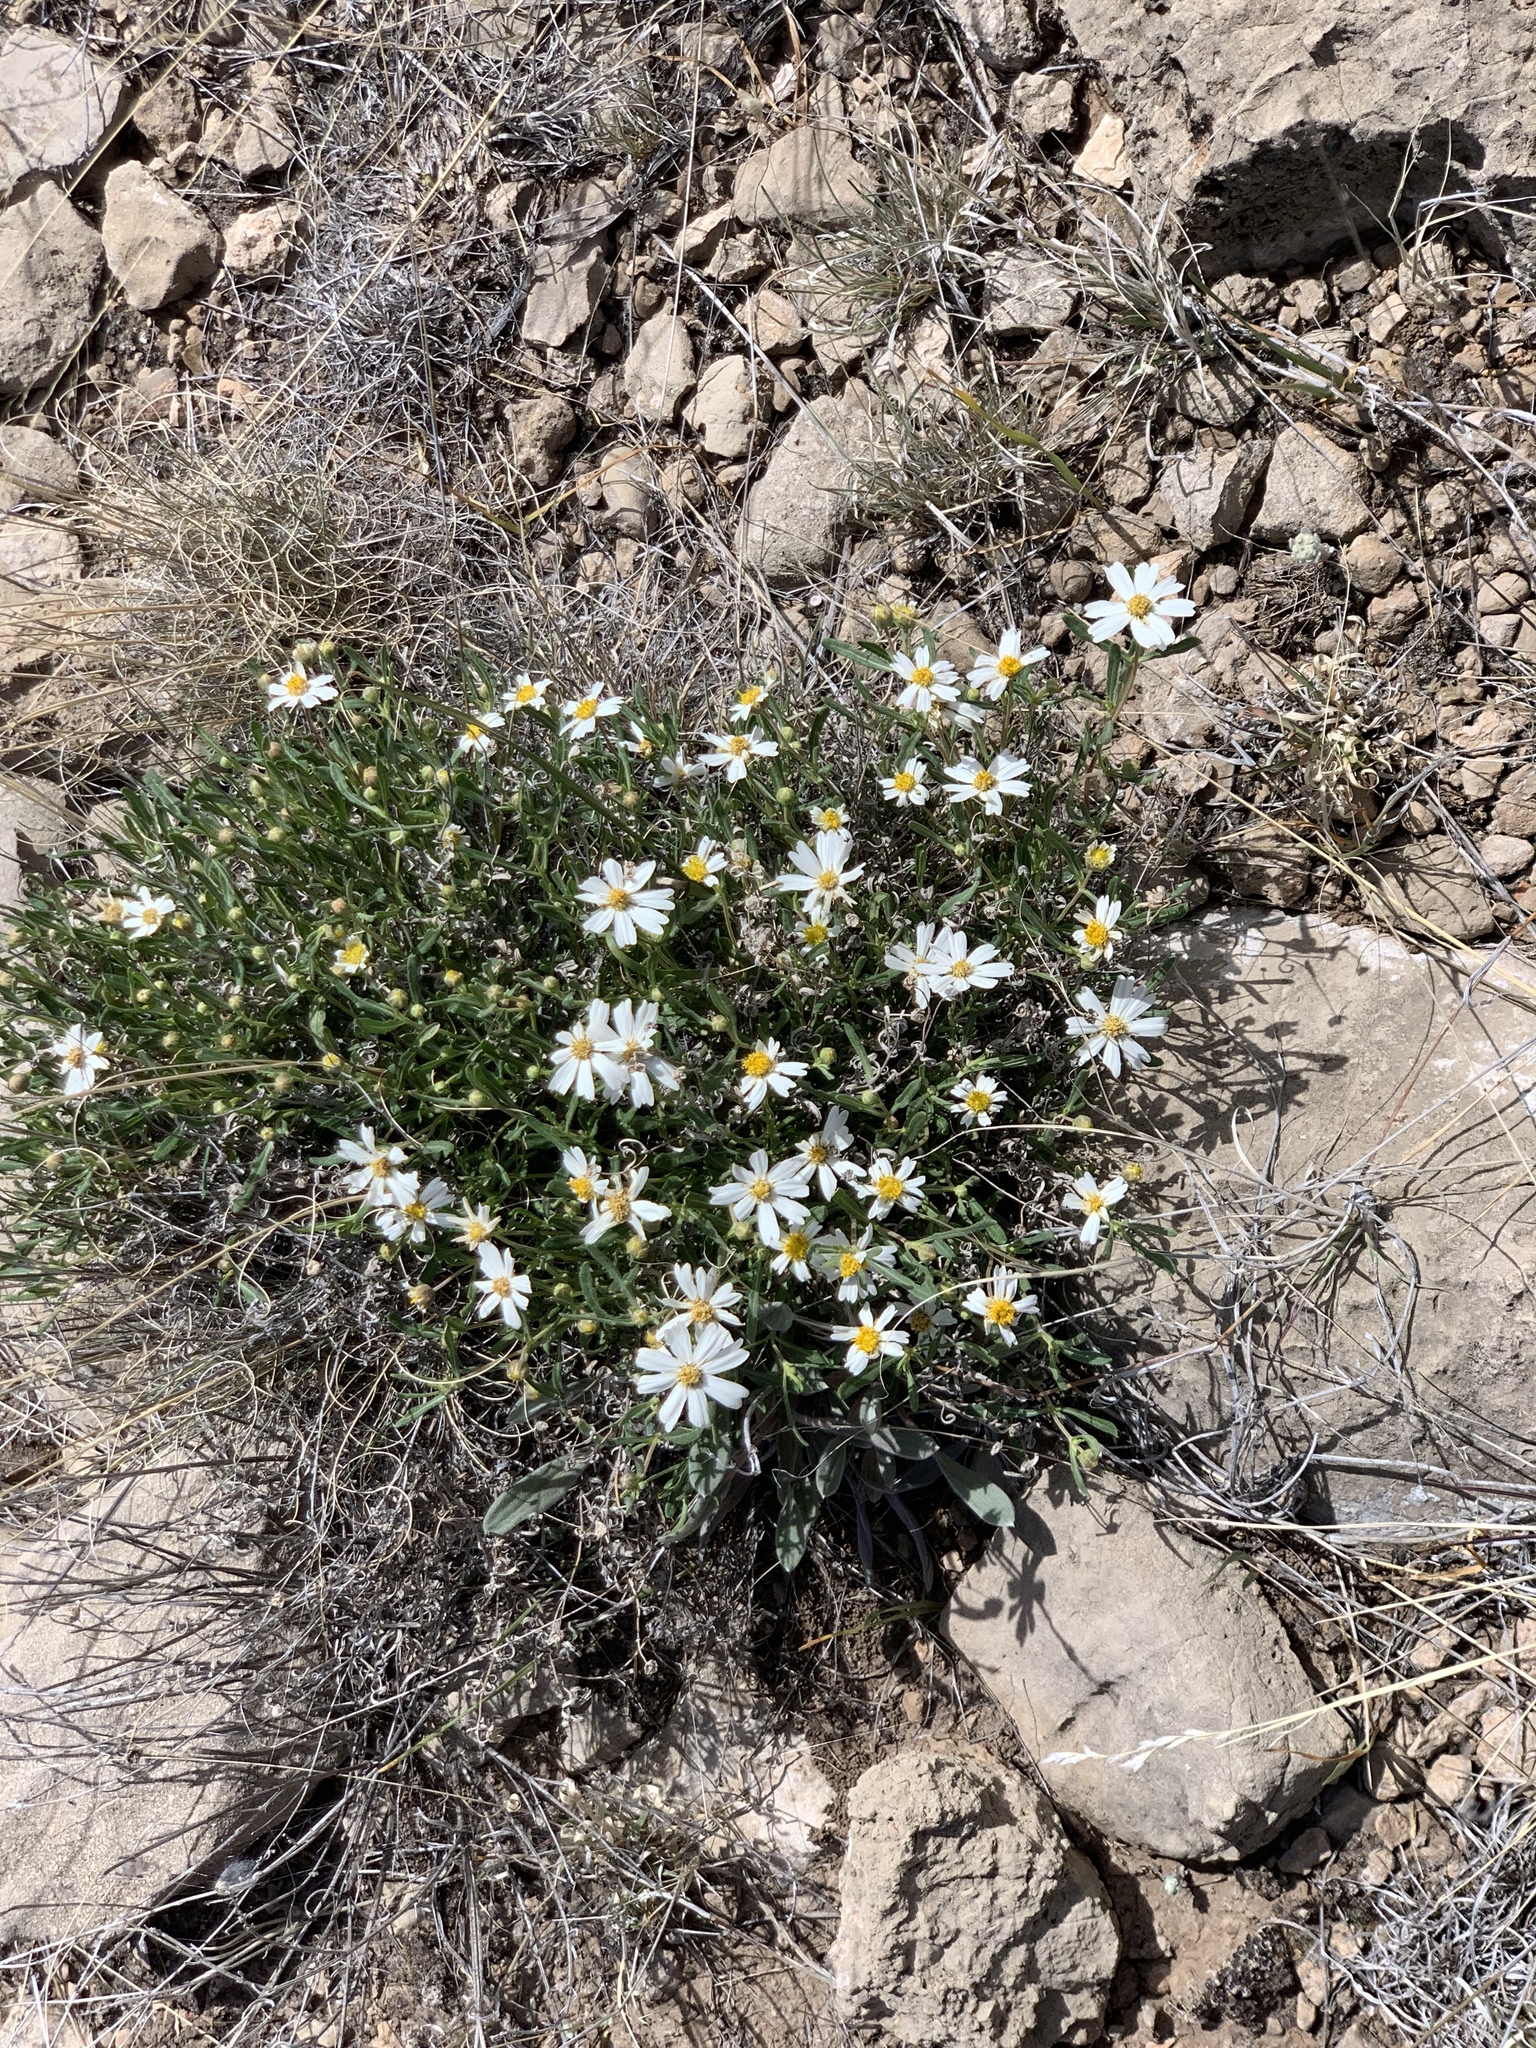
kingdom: Plantae
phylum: Tracheophyta
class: Magnoliopsida
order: Asterales
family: Asteraceae
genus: Melampodium
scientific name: Melampodium leucanthum
